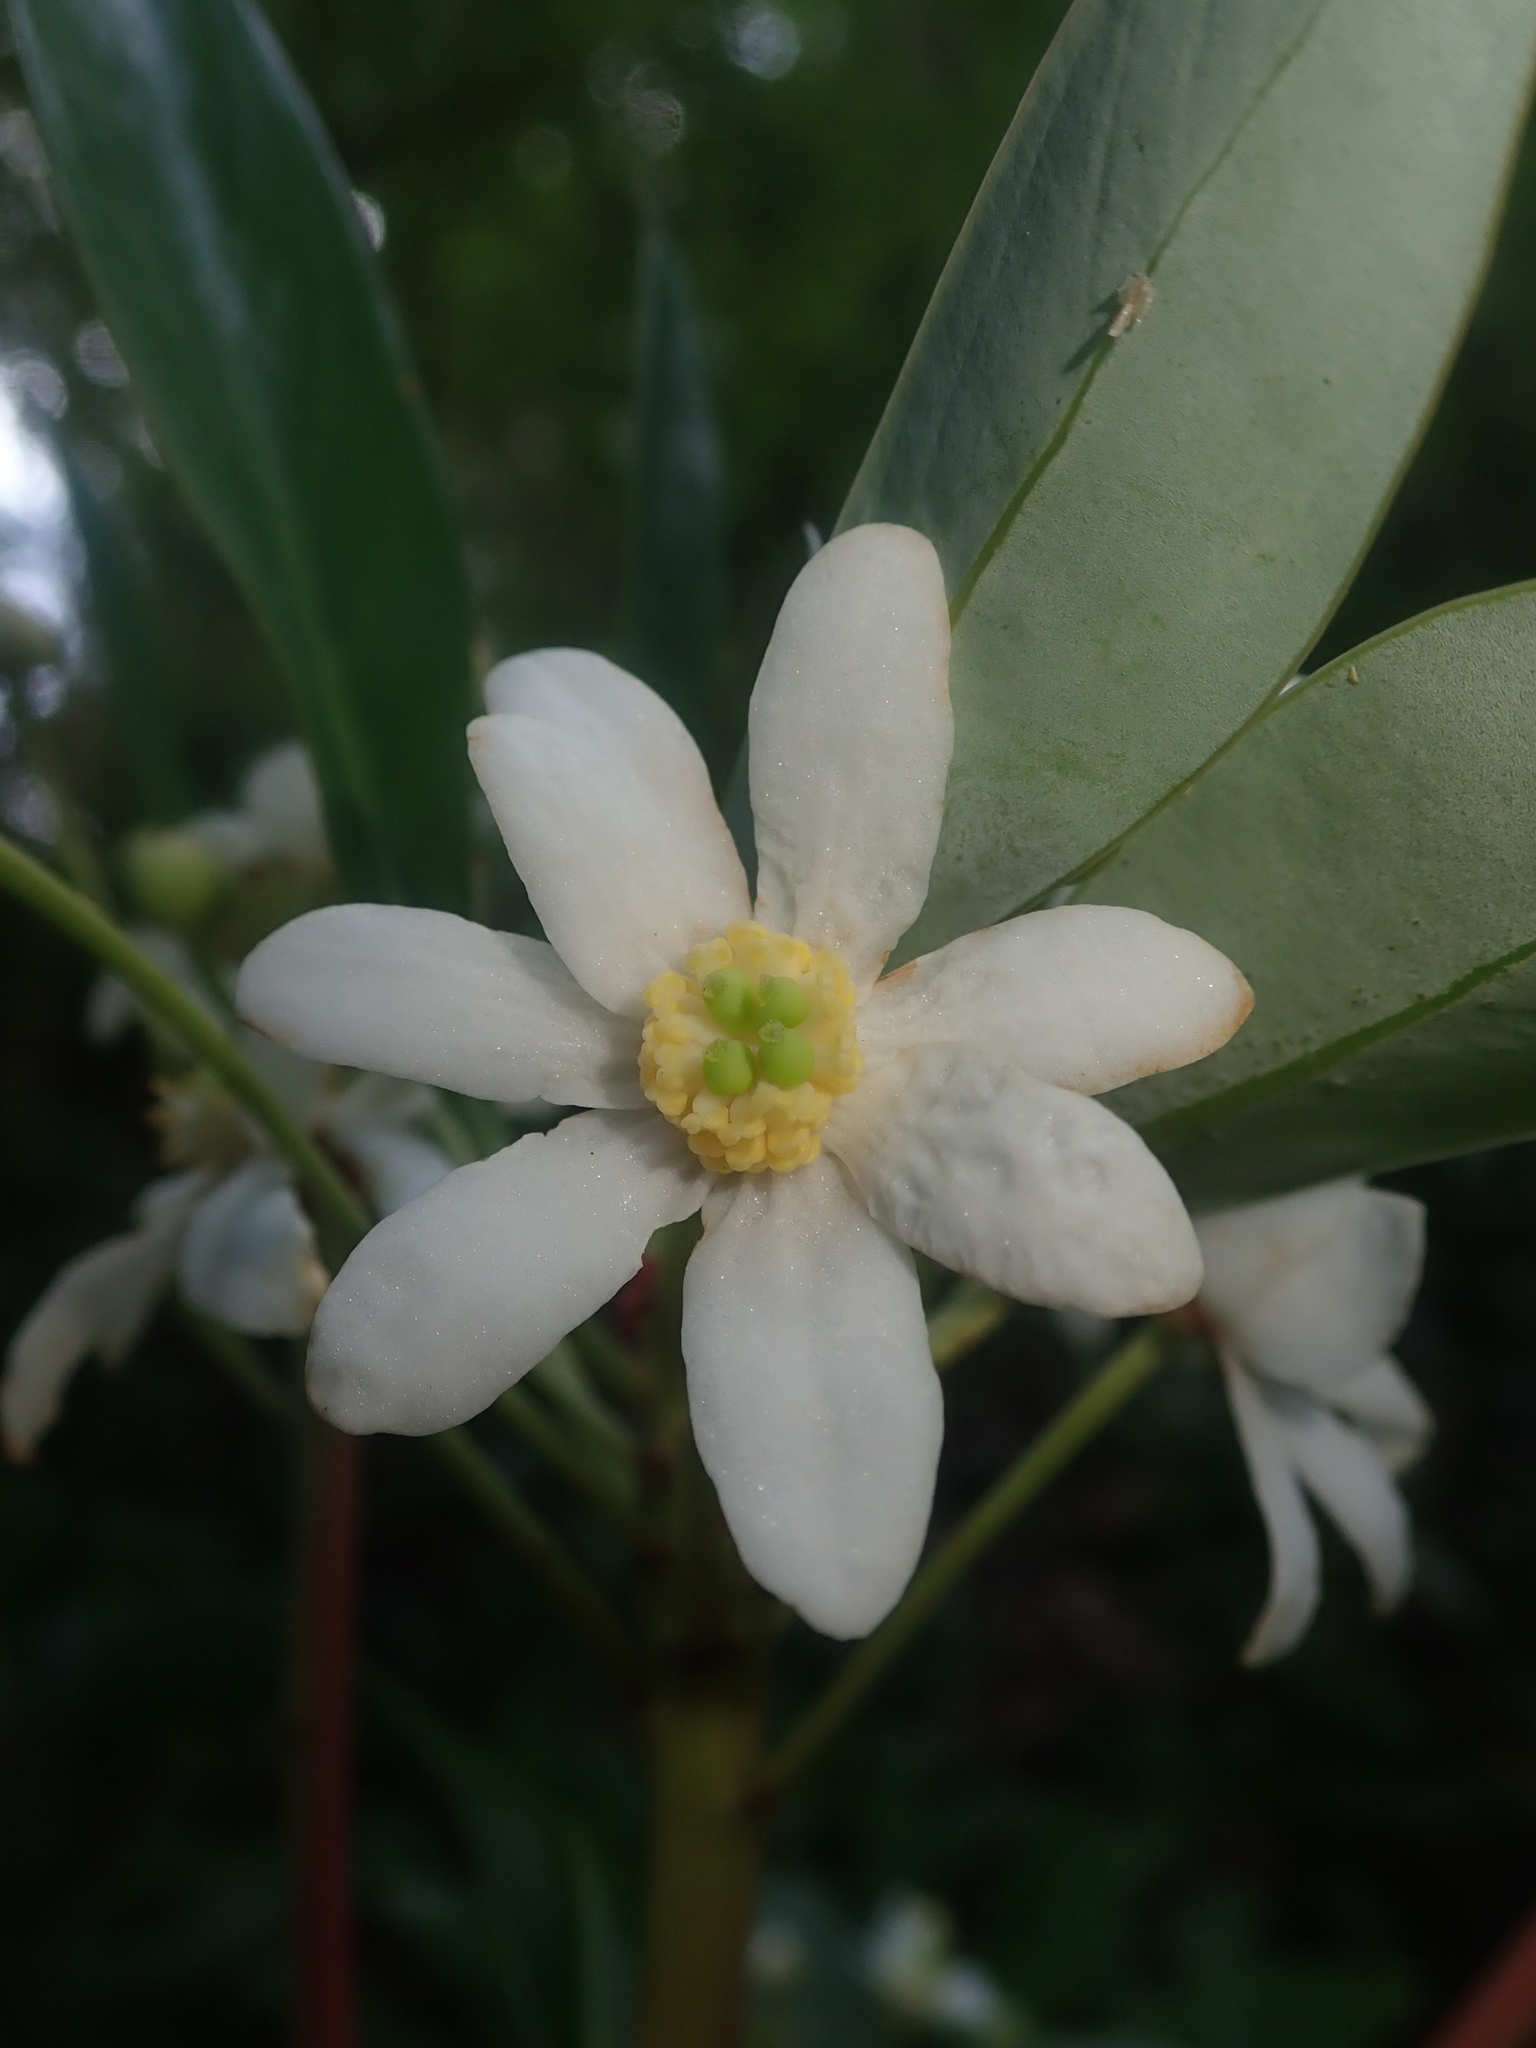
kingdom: Plantae
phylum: Tracheophyta
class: Magnoliopsida
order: Canellales
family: Winteraceae
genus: Drimys
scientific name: Drimys winteri
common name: Winter's-bark
